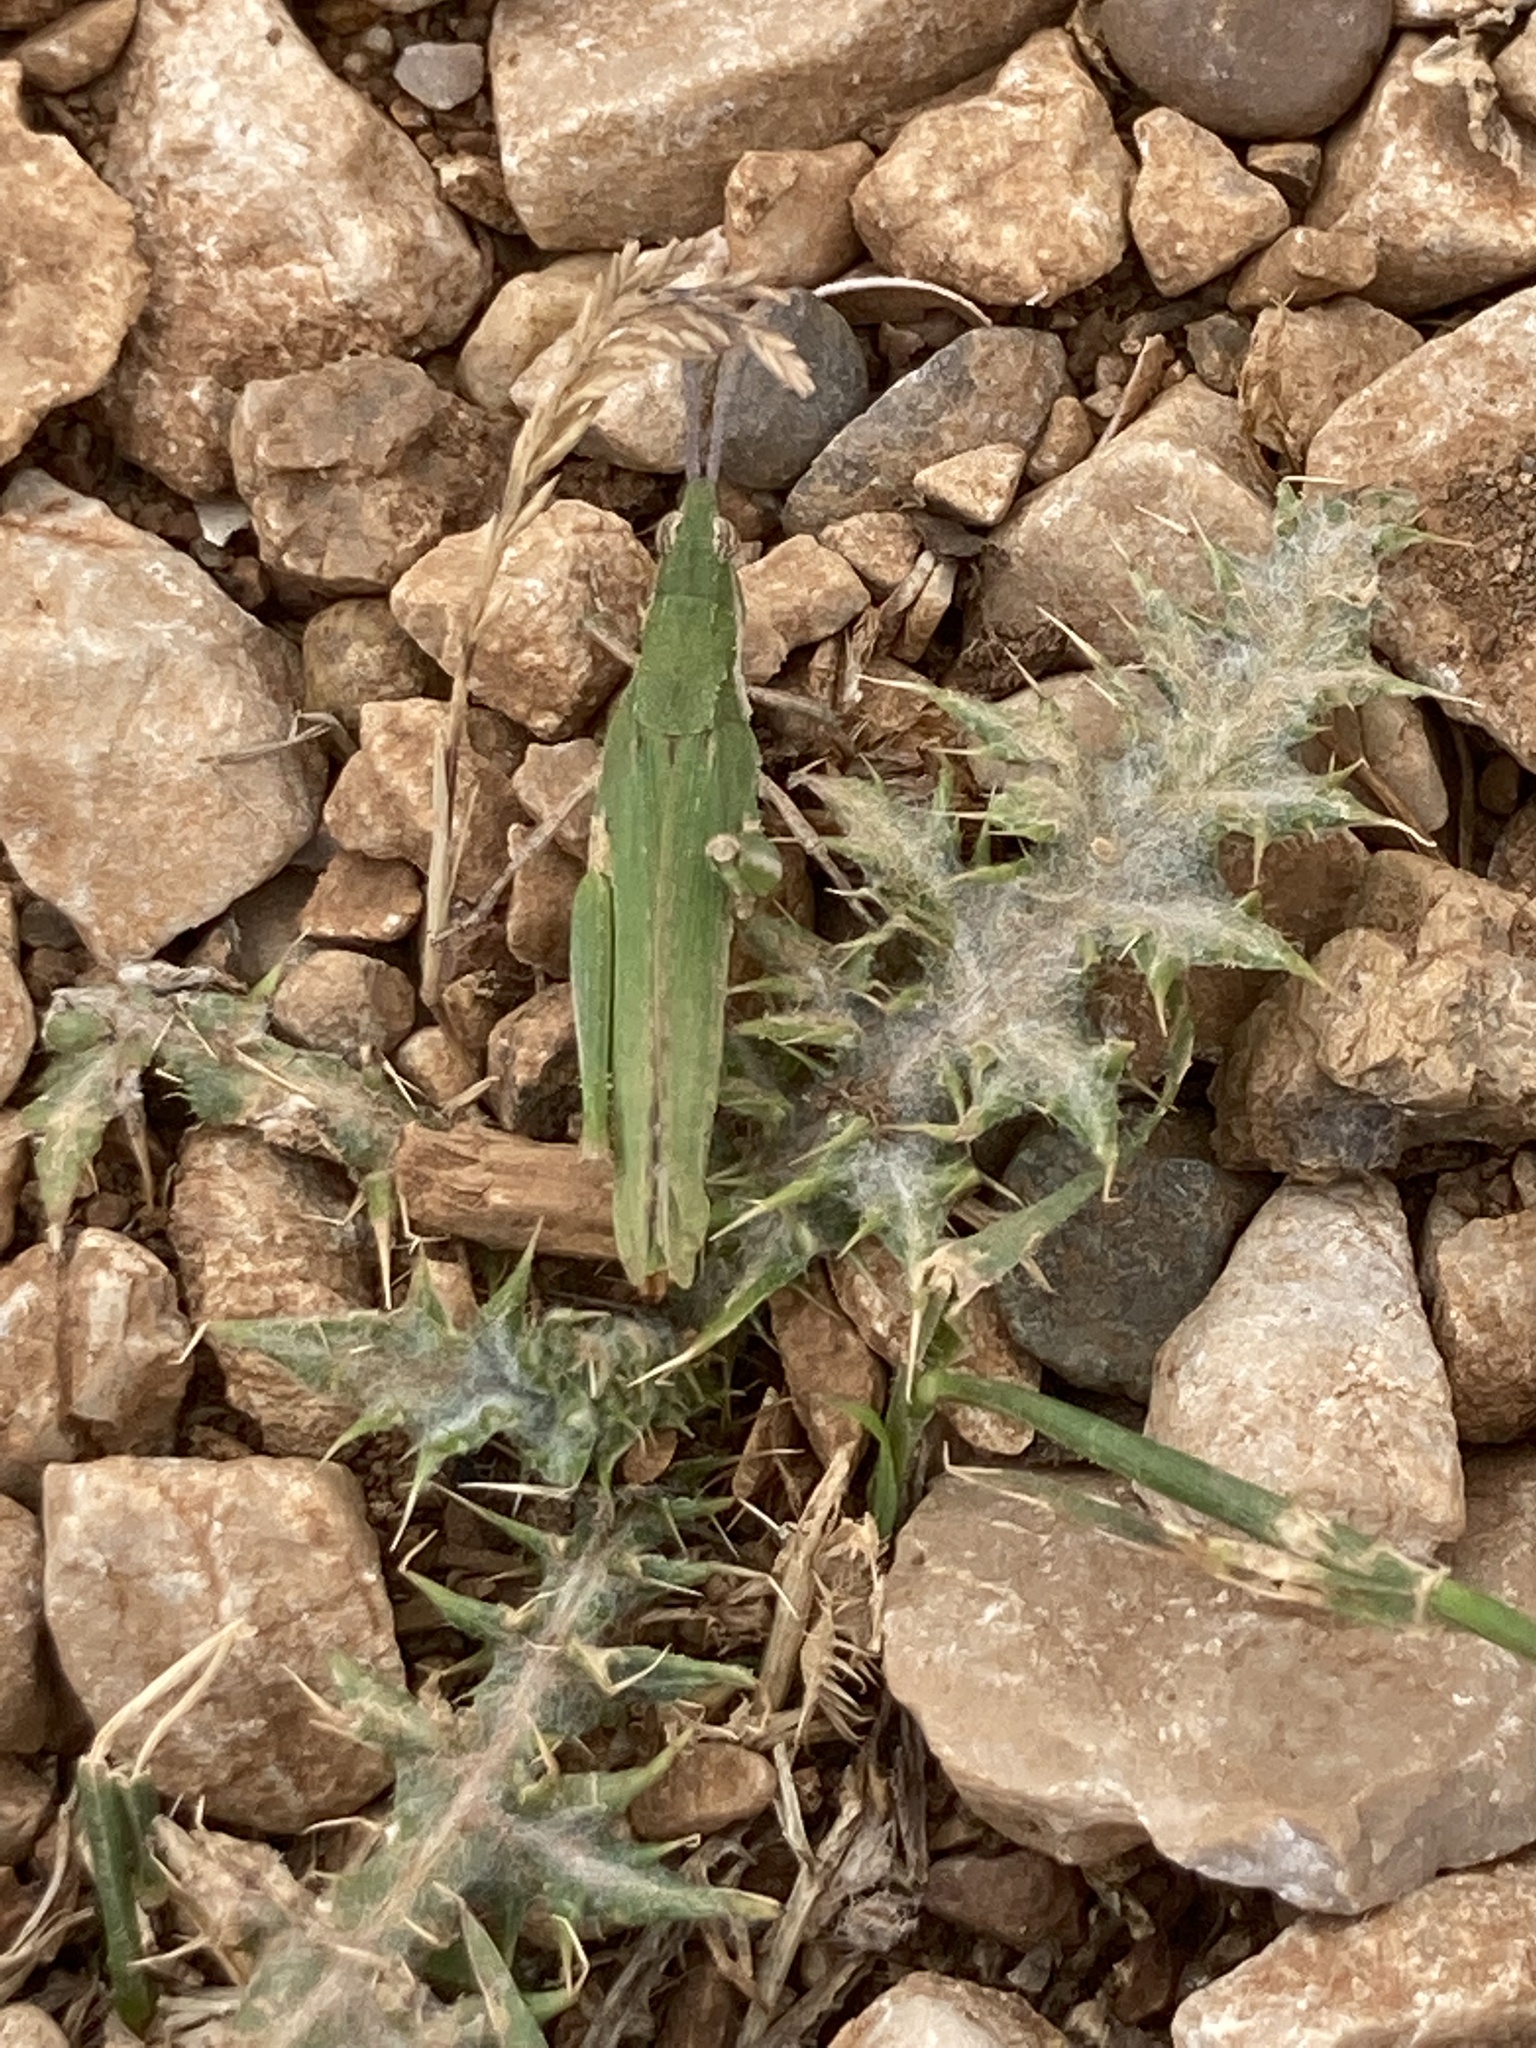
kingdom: Animalia
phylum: Arthropoda
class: Insecta
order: Orthoptera
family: Pyrgomorphidae
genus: Pyrgomorpha
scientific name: Pyrgomorpha conica
